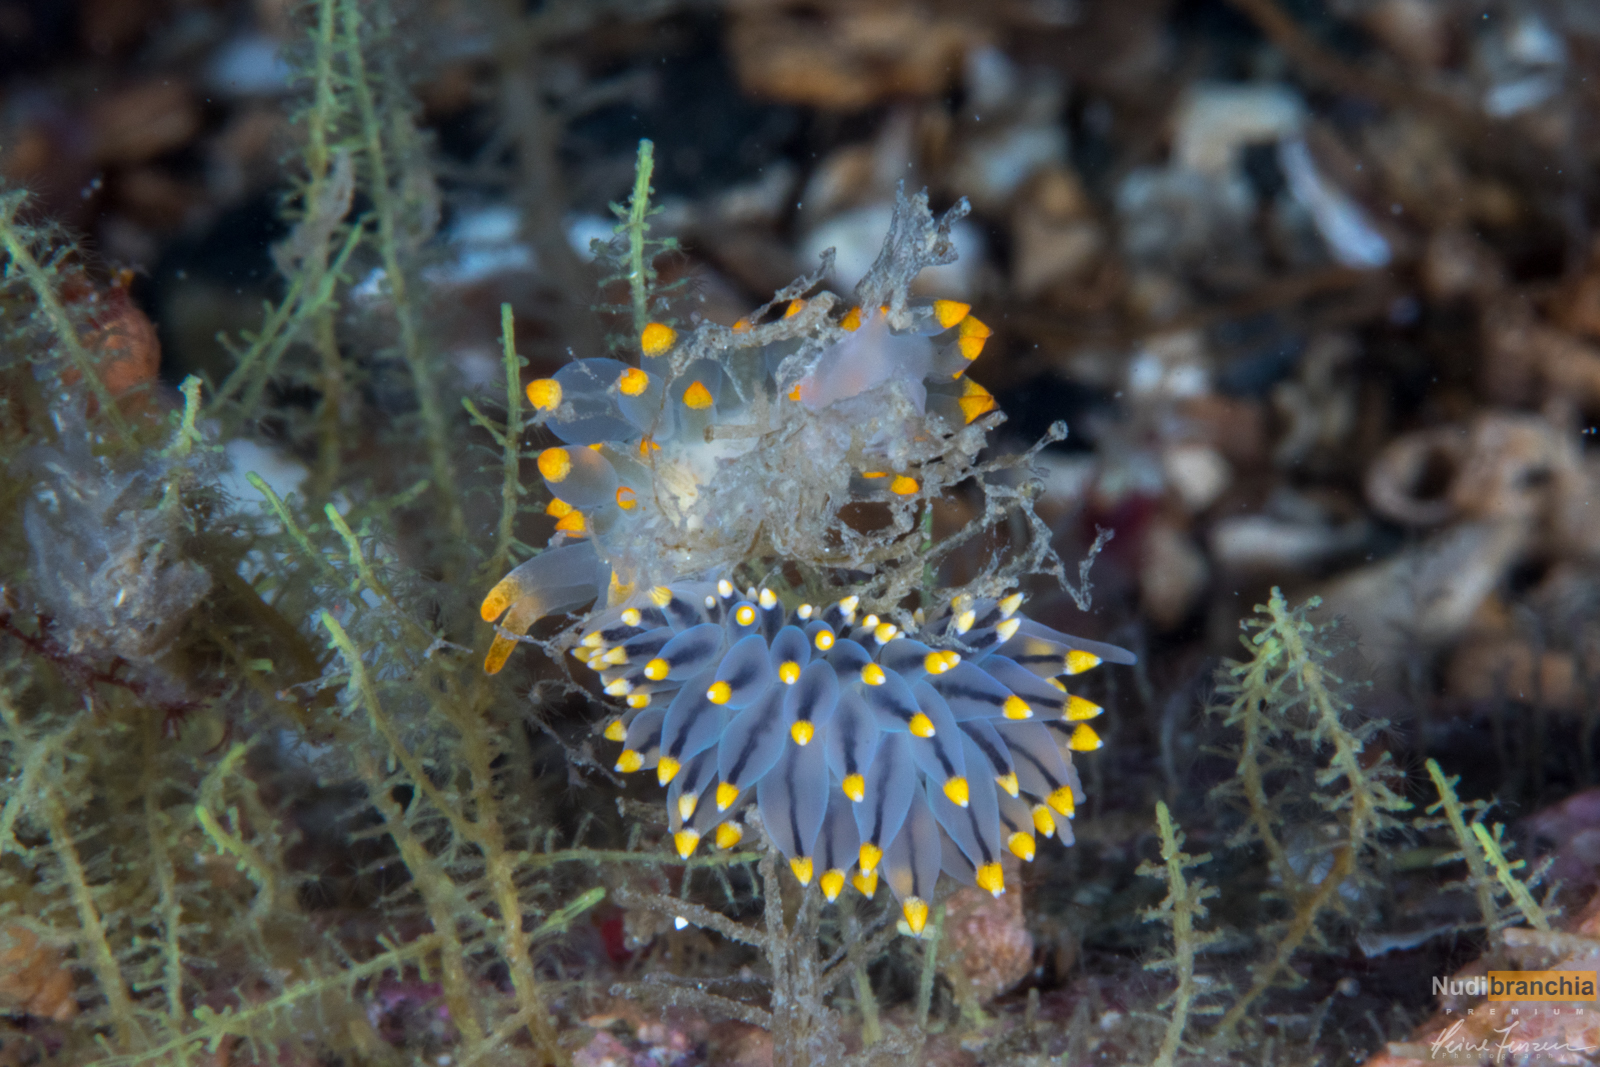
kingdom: Animalia
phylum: Mollusca
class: Gastropoda
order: Nudibranchia
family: Eubranchidae
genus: Eubranchus
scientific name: Eubranchus tricolor
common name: Painted balloon aeolis
